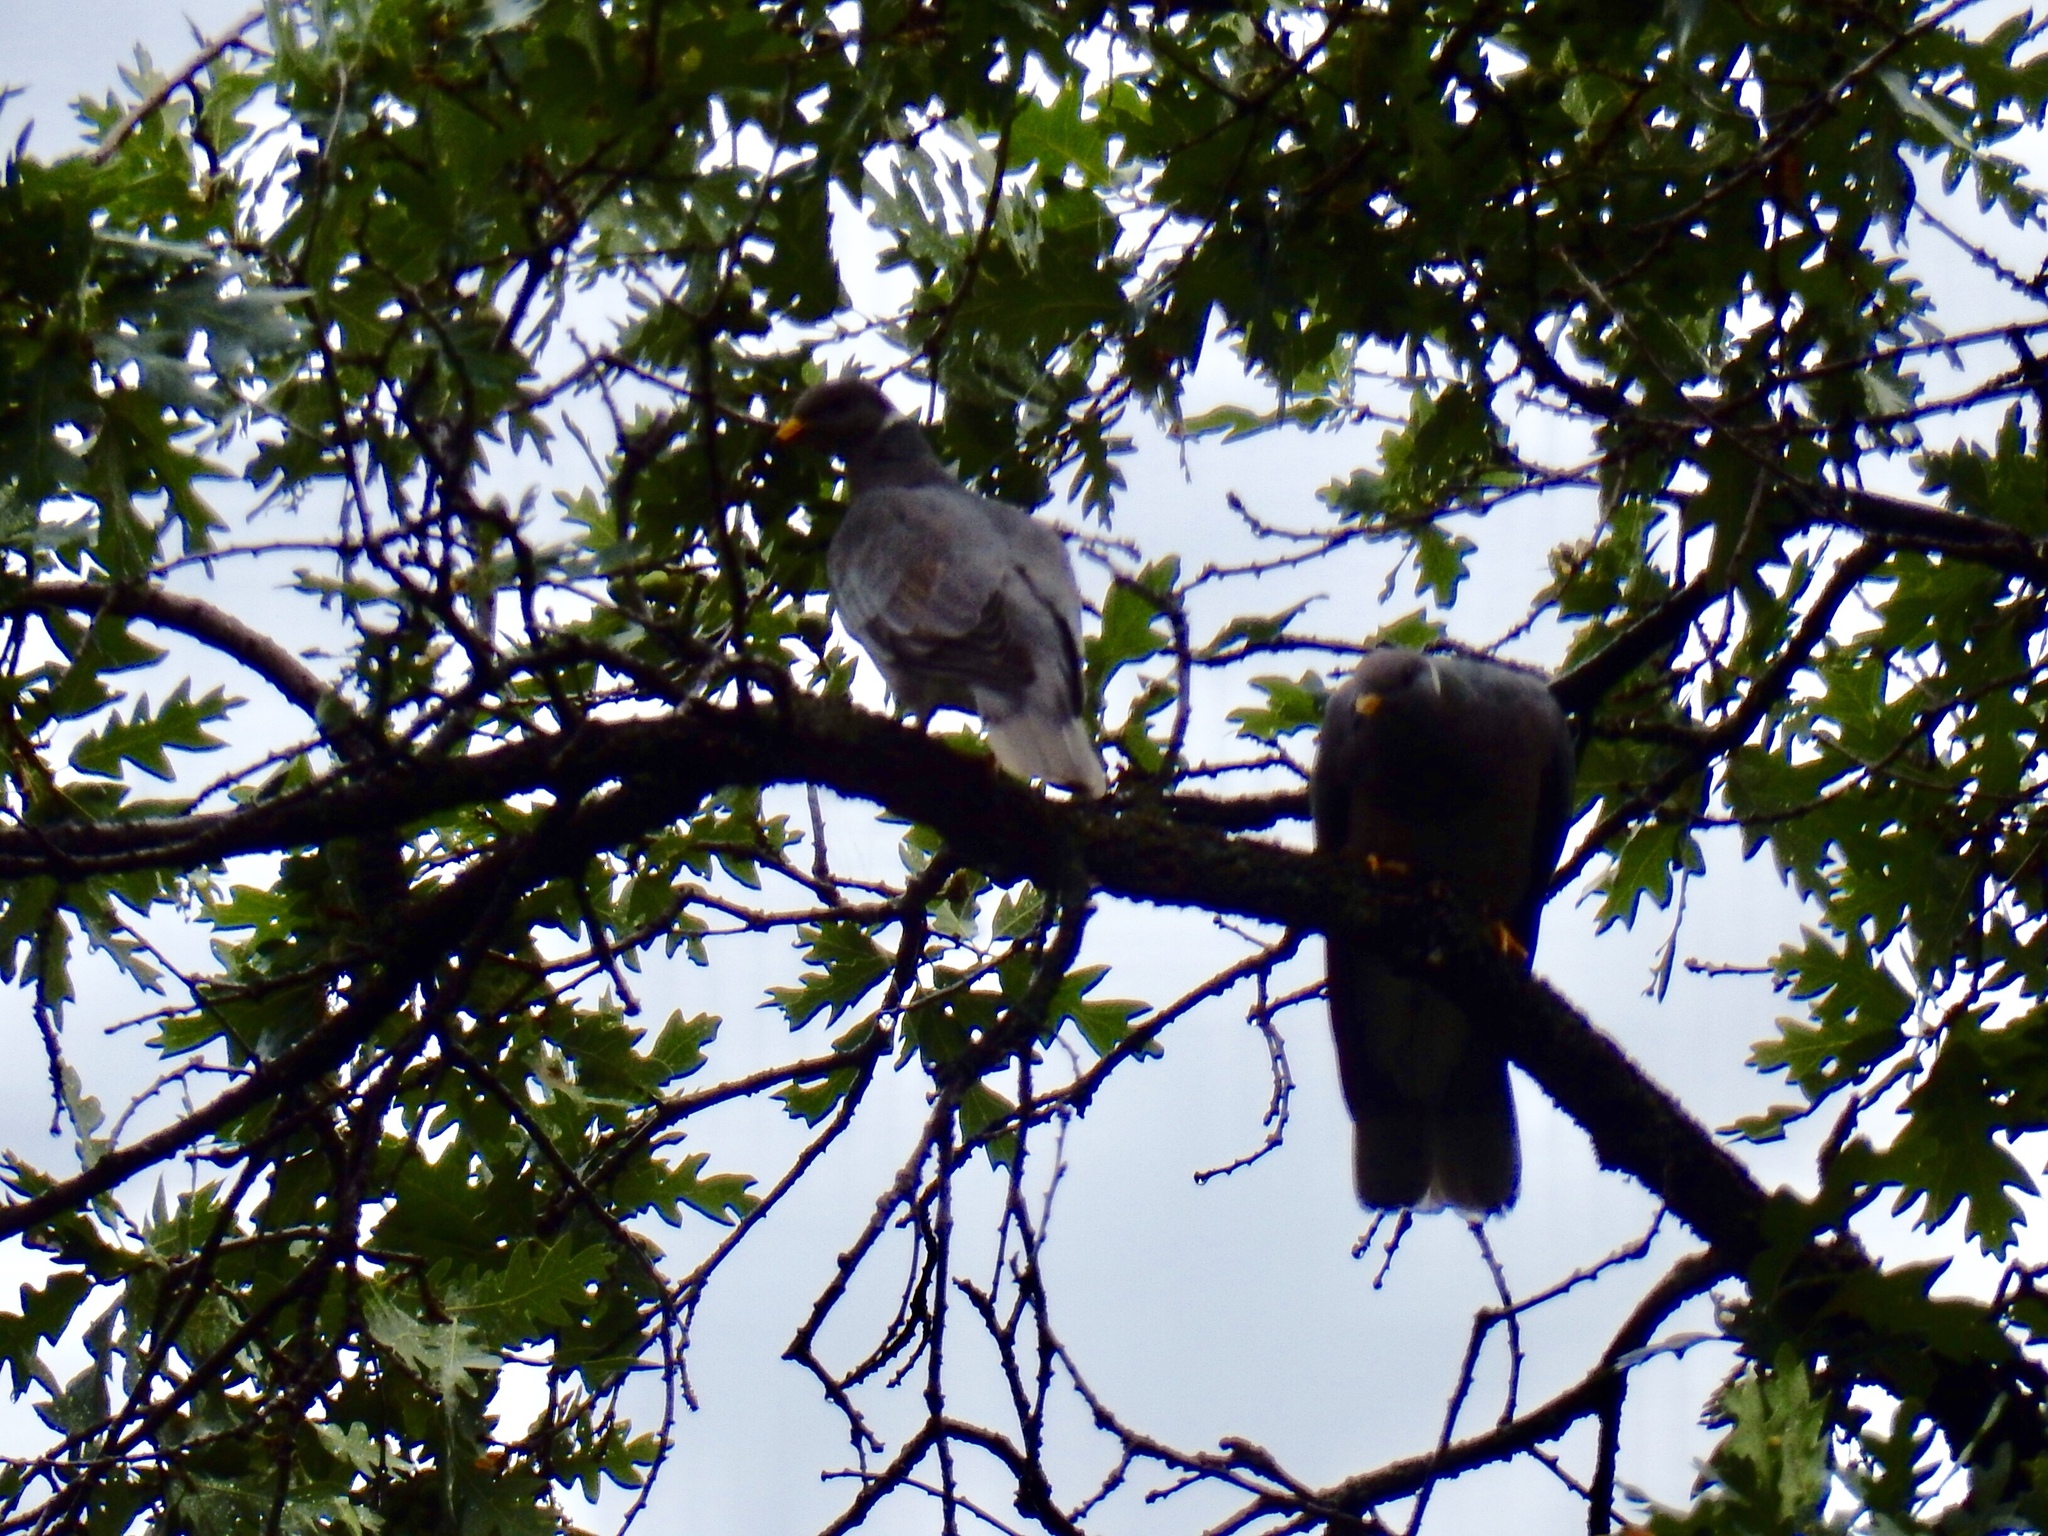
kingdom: Animalia
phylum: Chordata
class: Aves
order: Columbiformes
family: Columbidae
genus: Patagioenas
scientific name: Patagioenas fasciata
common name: Band-tailed pigeon
